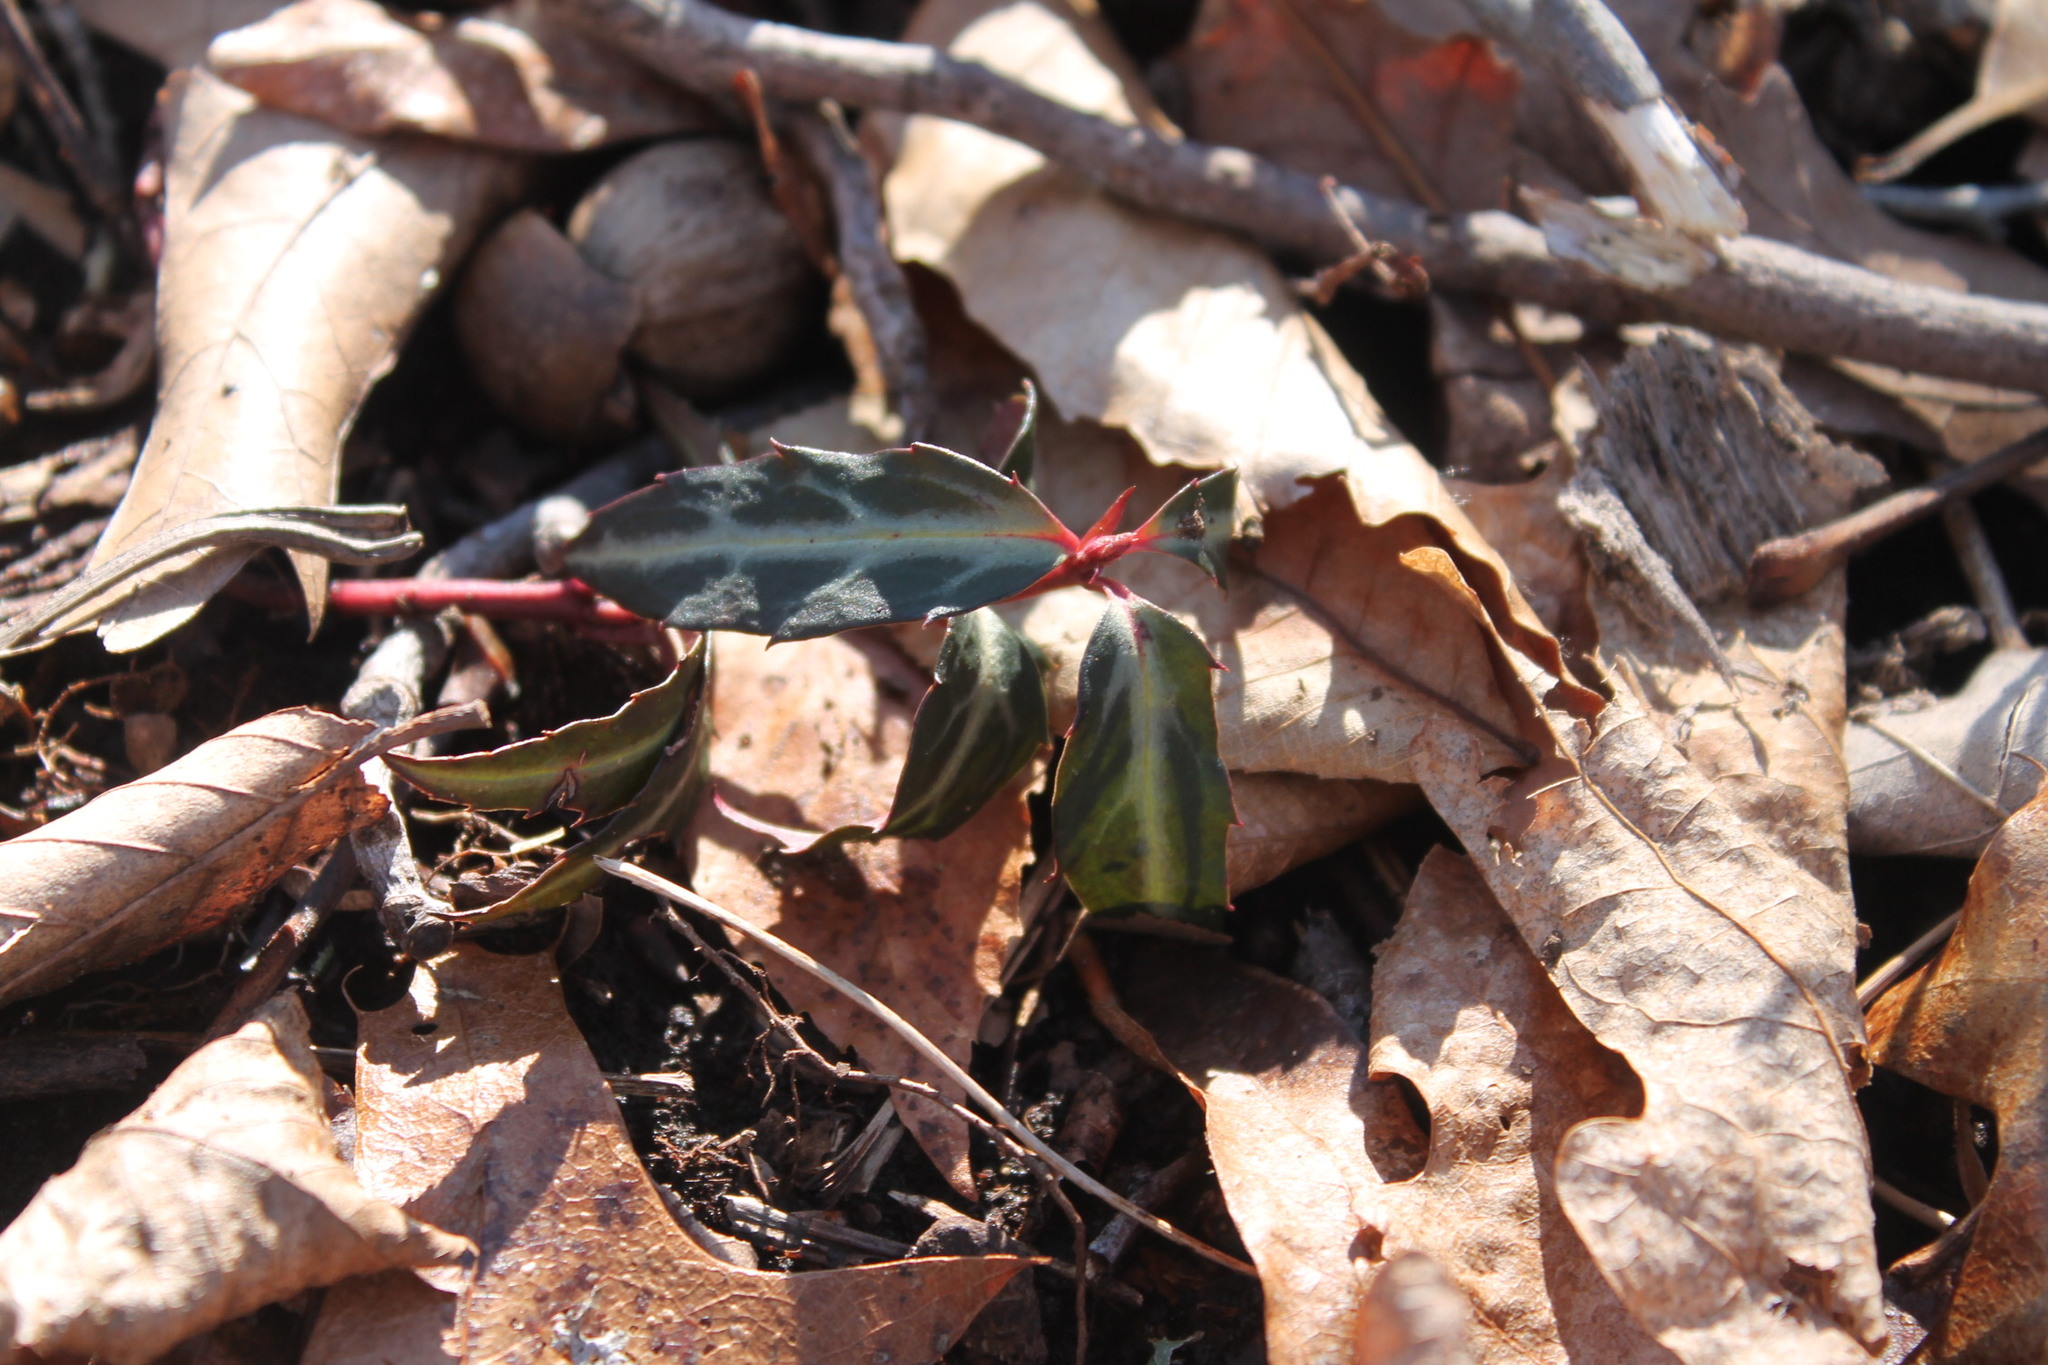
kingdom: Plantae
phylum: Tracheophyta
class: Magnoliopsida
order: Ericales
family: Ericaceae
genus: Chimaphila
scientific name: Chimaphila maculata
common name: Spotted pipsissewa
